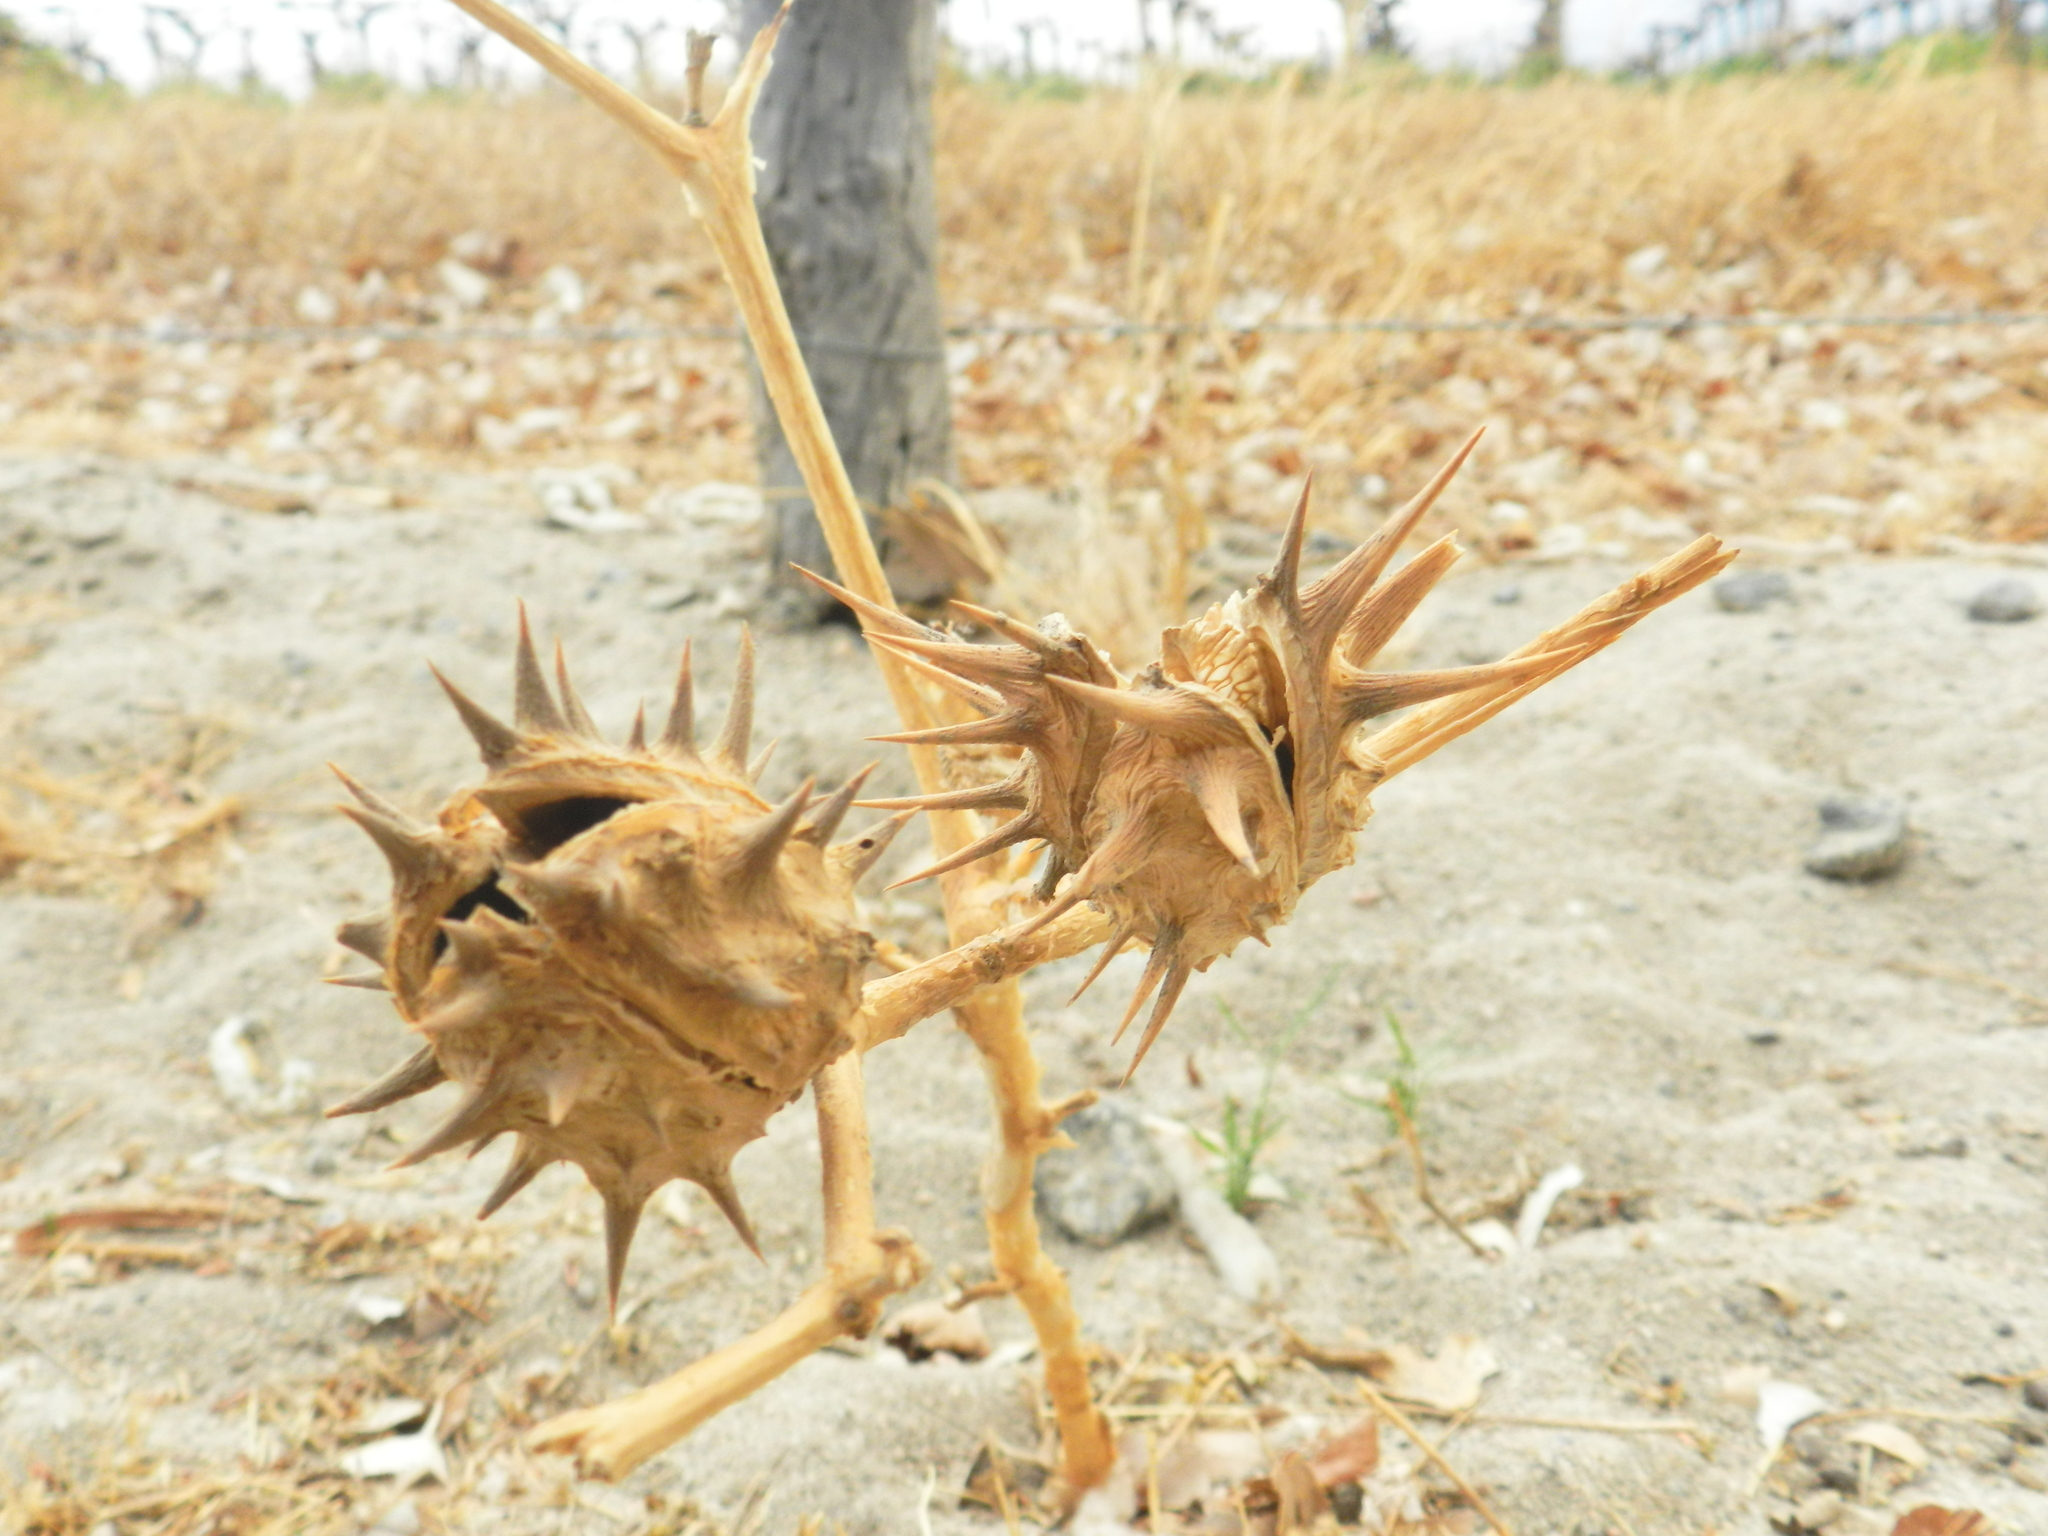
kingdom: Plantae
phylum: Tracheophyta
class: Magnoliopsida
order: Solanales
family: Solanaceae
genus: Datura
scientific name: Datura ferox
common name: Angel's-trumpets
